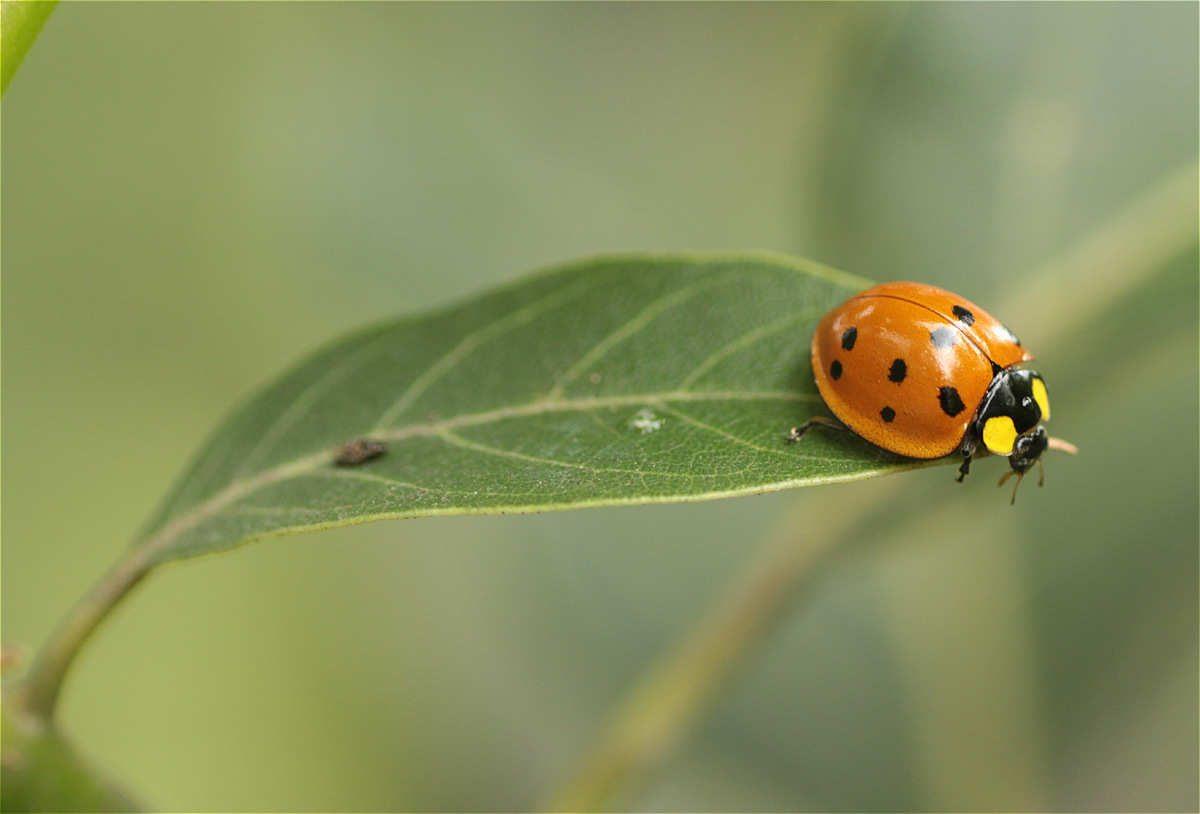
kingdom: Animalia
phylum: Arthropoda
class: Insecta
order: Coleoptera
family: Coccinellidae
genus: Neda
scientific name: Neda aequatoriana
